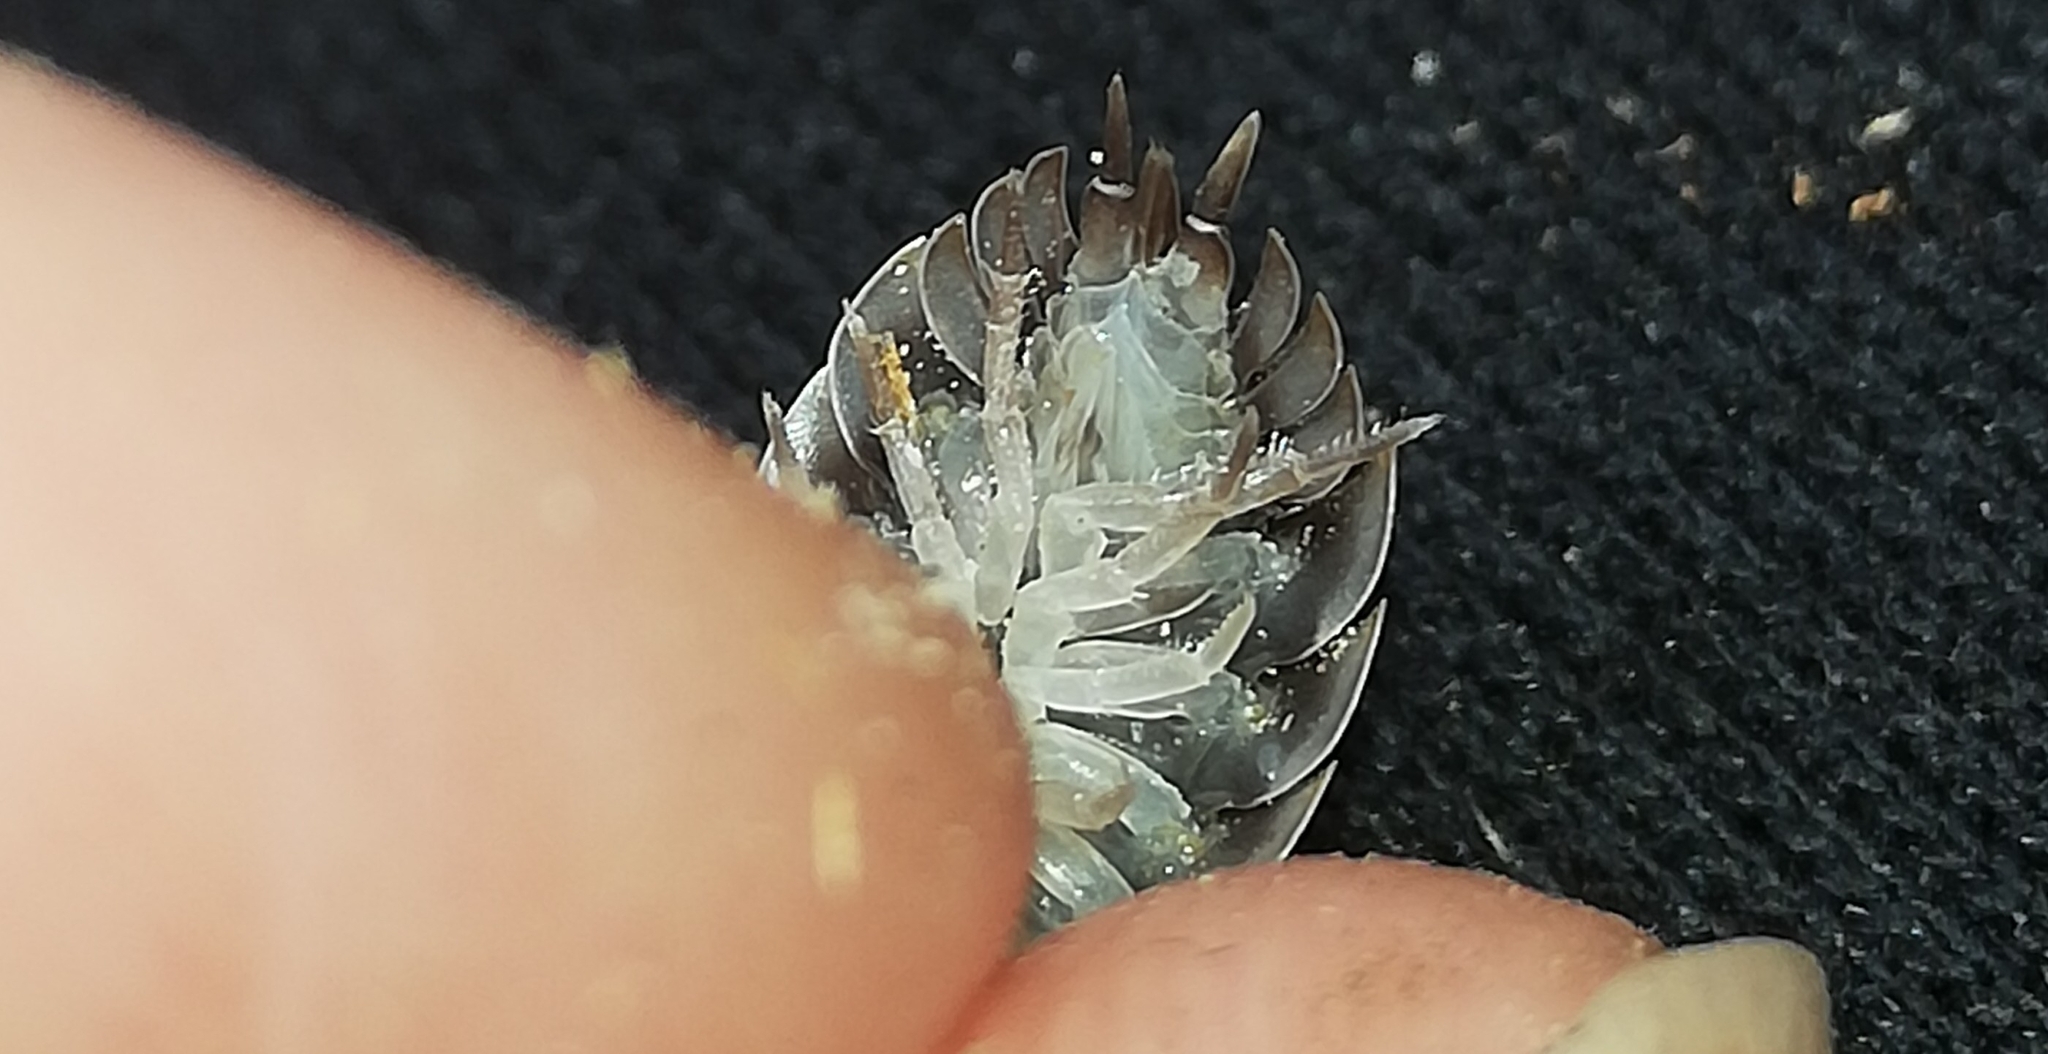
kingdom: Animalia
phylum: Arthropoda
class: Malacostraca
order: Isopoda
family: Oniscidae
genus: Oniscus
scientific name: Oniscus asellus
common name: Common shiny woodlouse
